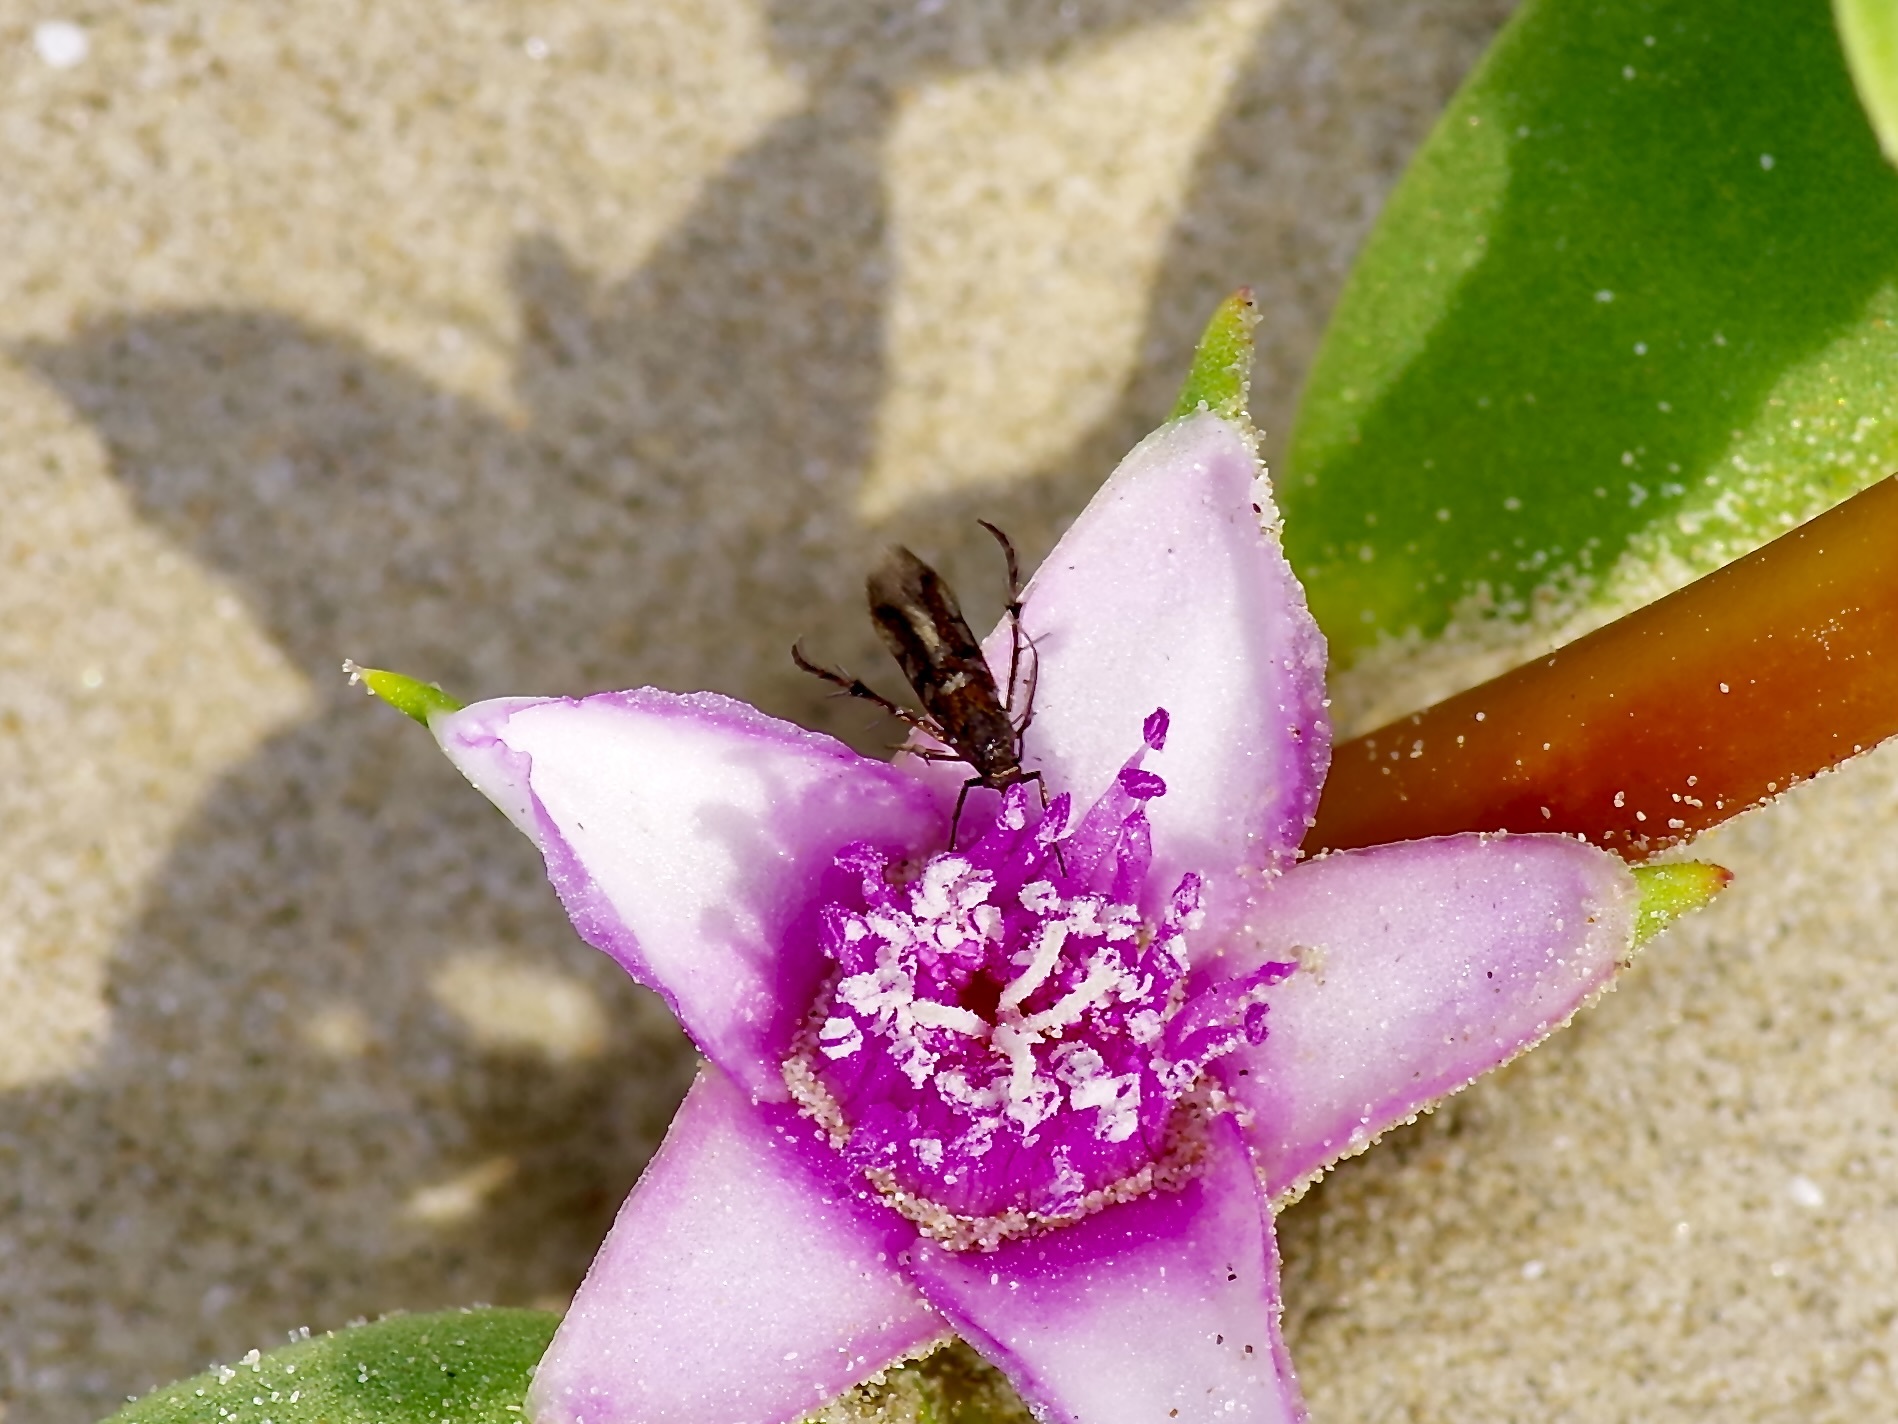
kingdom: Animalia
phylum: Arthropoda
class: Insecta
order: Lepidoptera
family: Heliodinidae
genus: Heliodines
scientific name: Heliodines Aetole tripunctella
